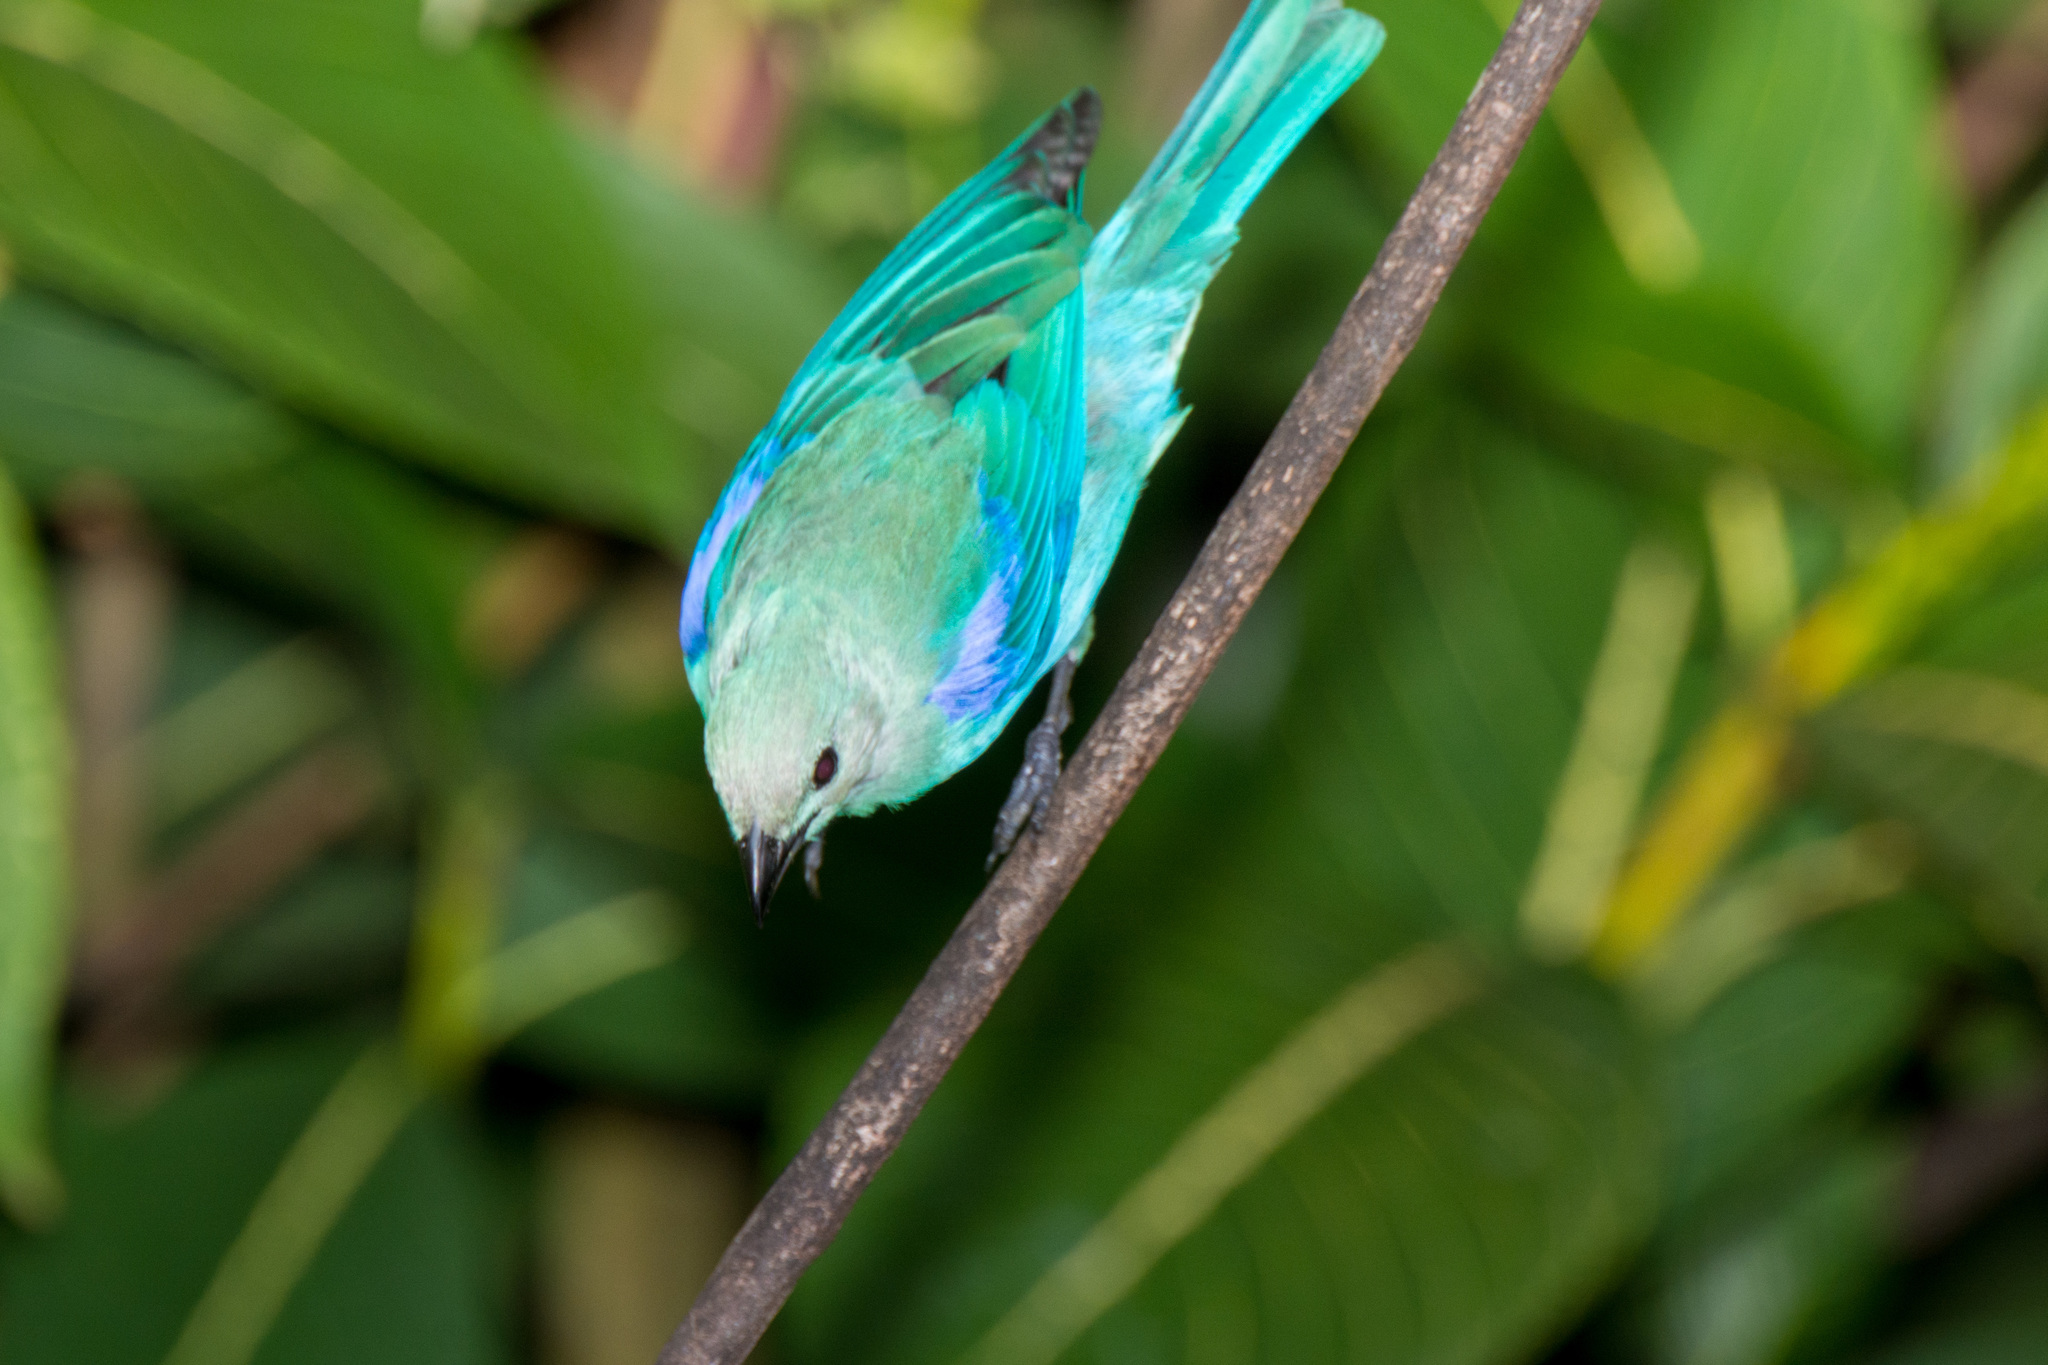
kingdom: Animalia
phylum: Chordata
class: Aves
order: Passeriformes
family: Thraupidae
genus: Thraupis
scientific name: Thraupis episcopus
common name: Blue-grey tanager
